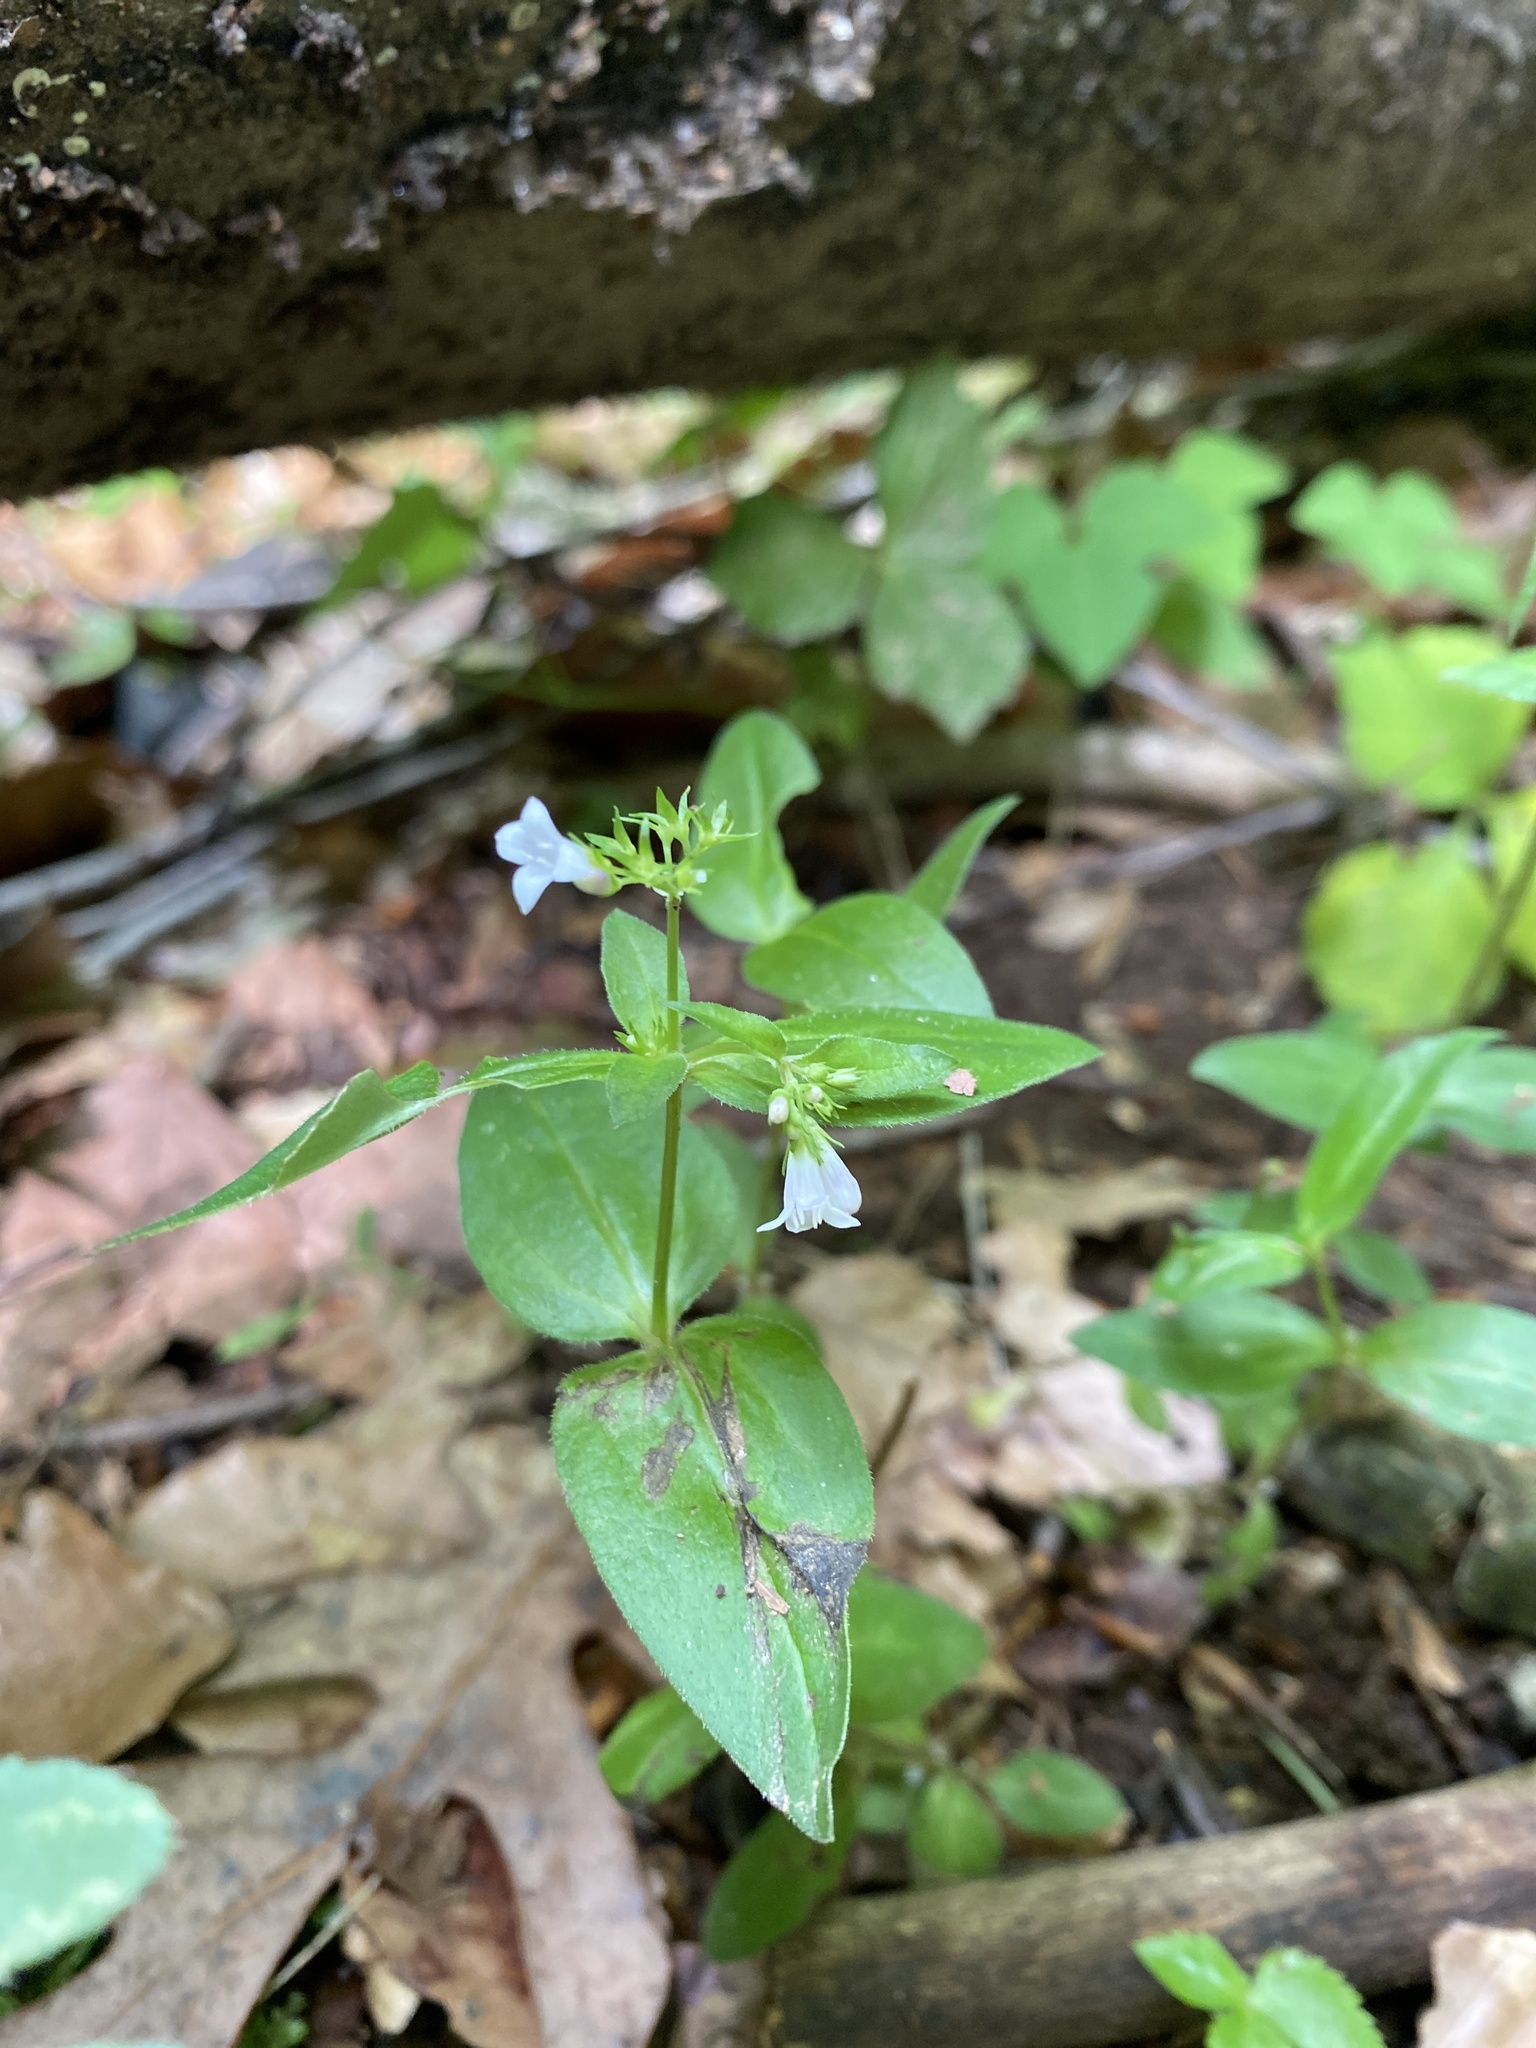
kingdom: Plantae
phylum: Tracheophyta
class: Magnoliopsida
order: Gentianales
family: Rubiaceae
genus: Houstonia
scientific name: Houstonia purpurea
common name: Summer bluet
